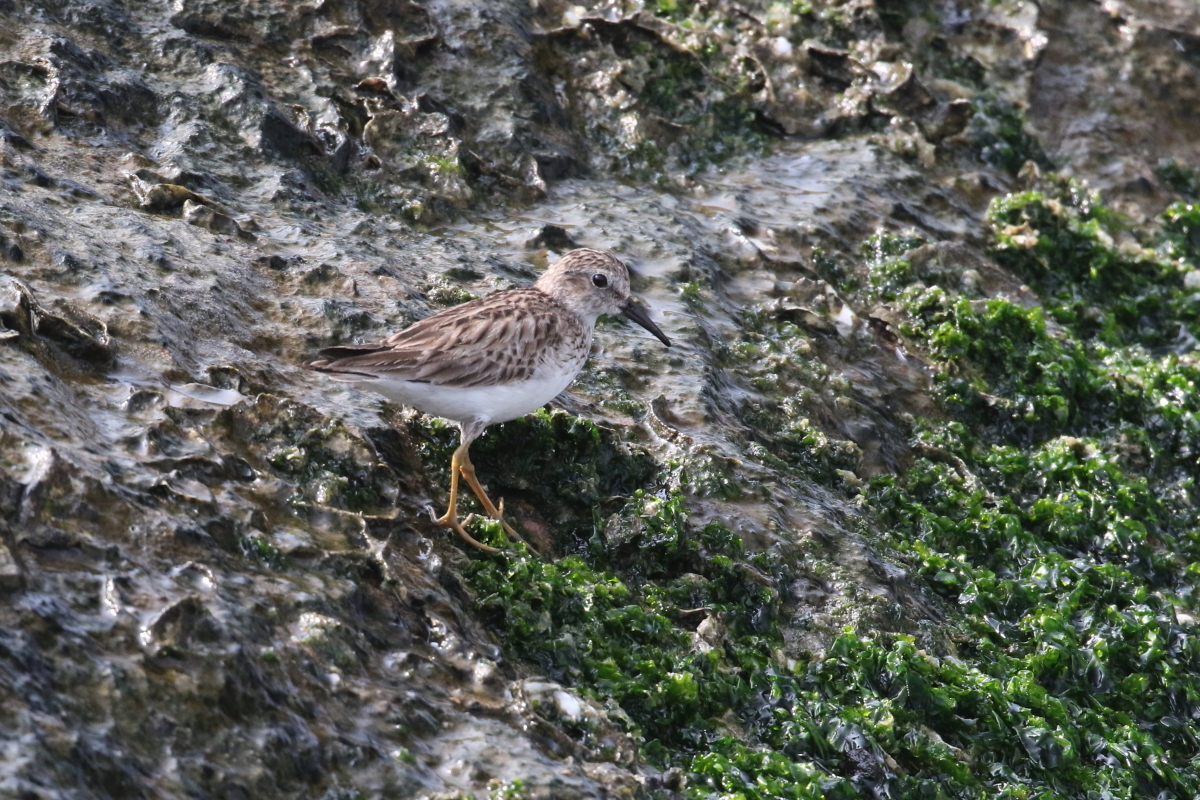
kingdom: Animalia
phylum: Chordata
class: Aves
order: Charadriiformes
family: Scolopacidae
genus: Calidris
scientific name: Calidris minutilla
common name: Least sandpiper
